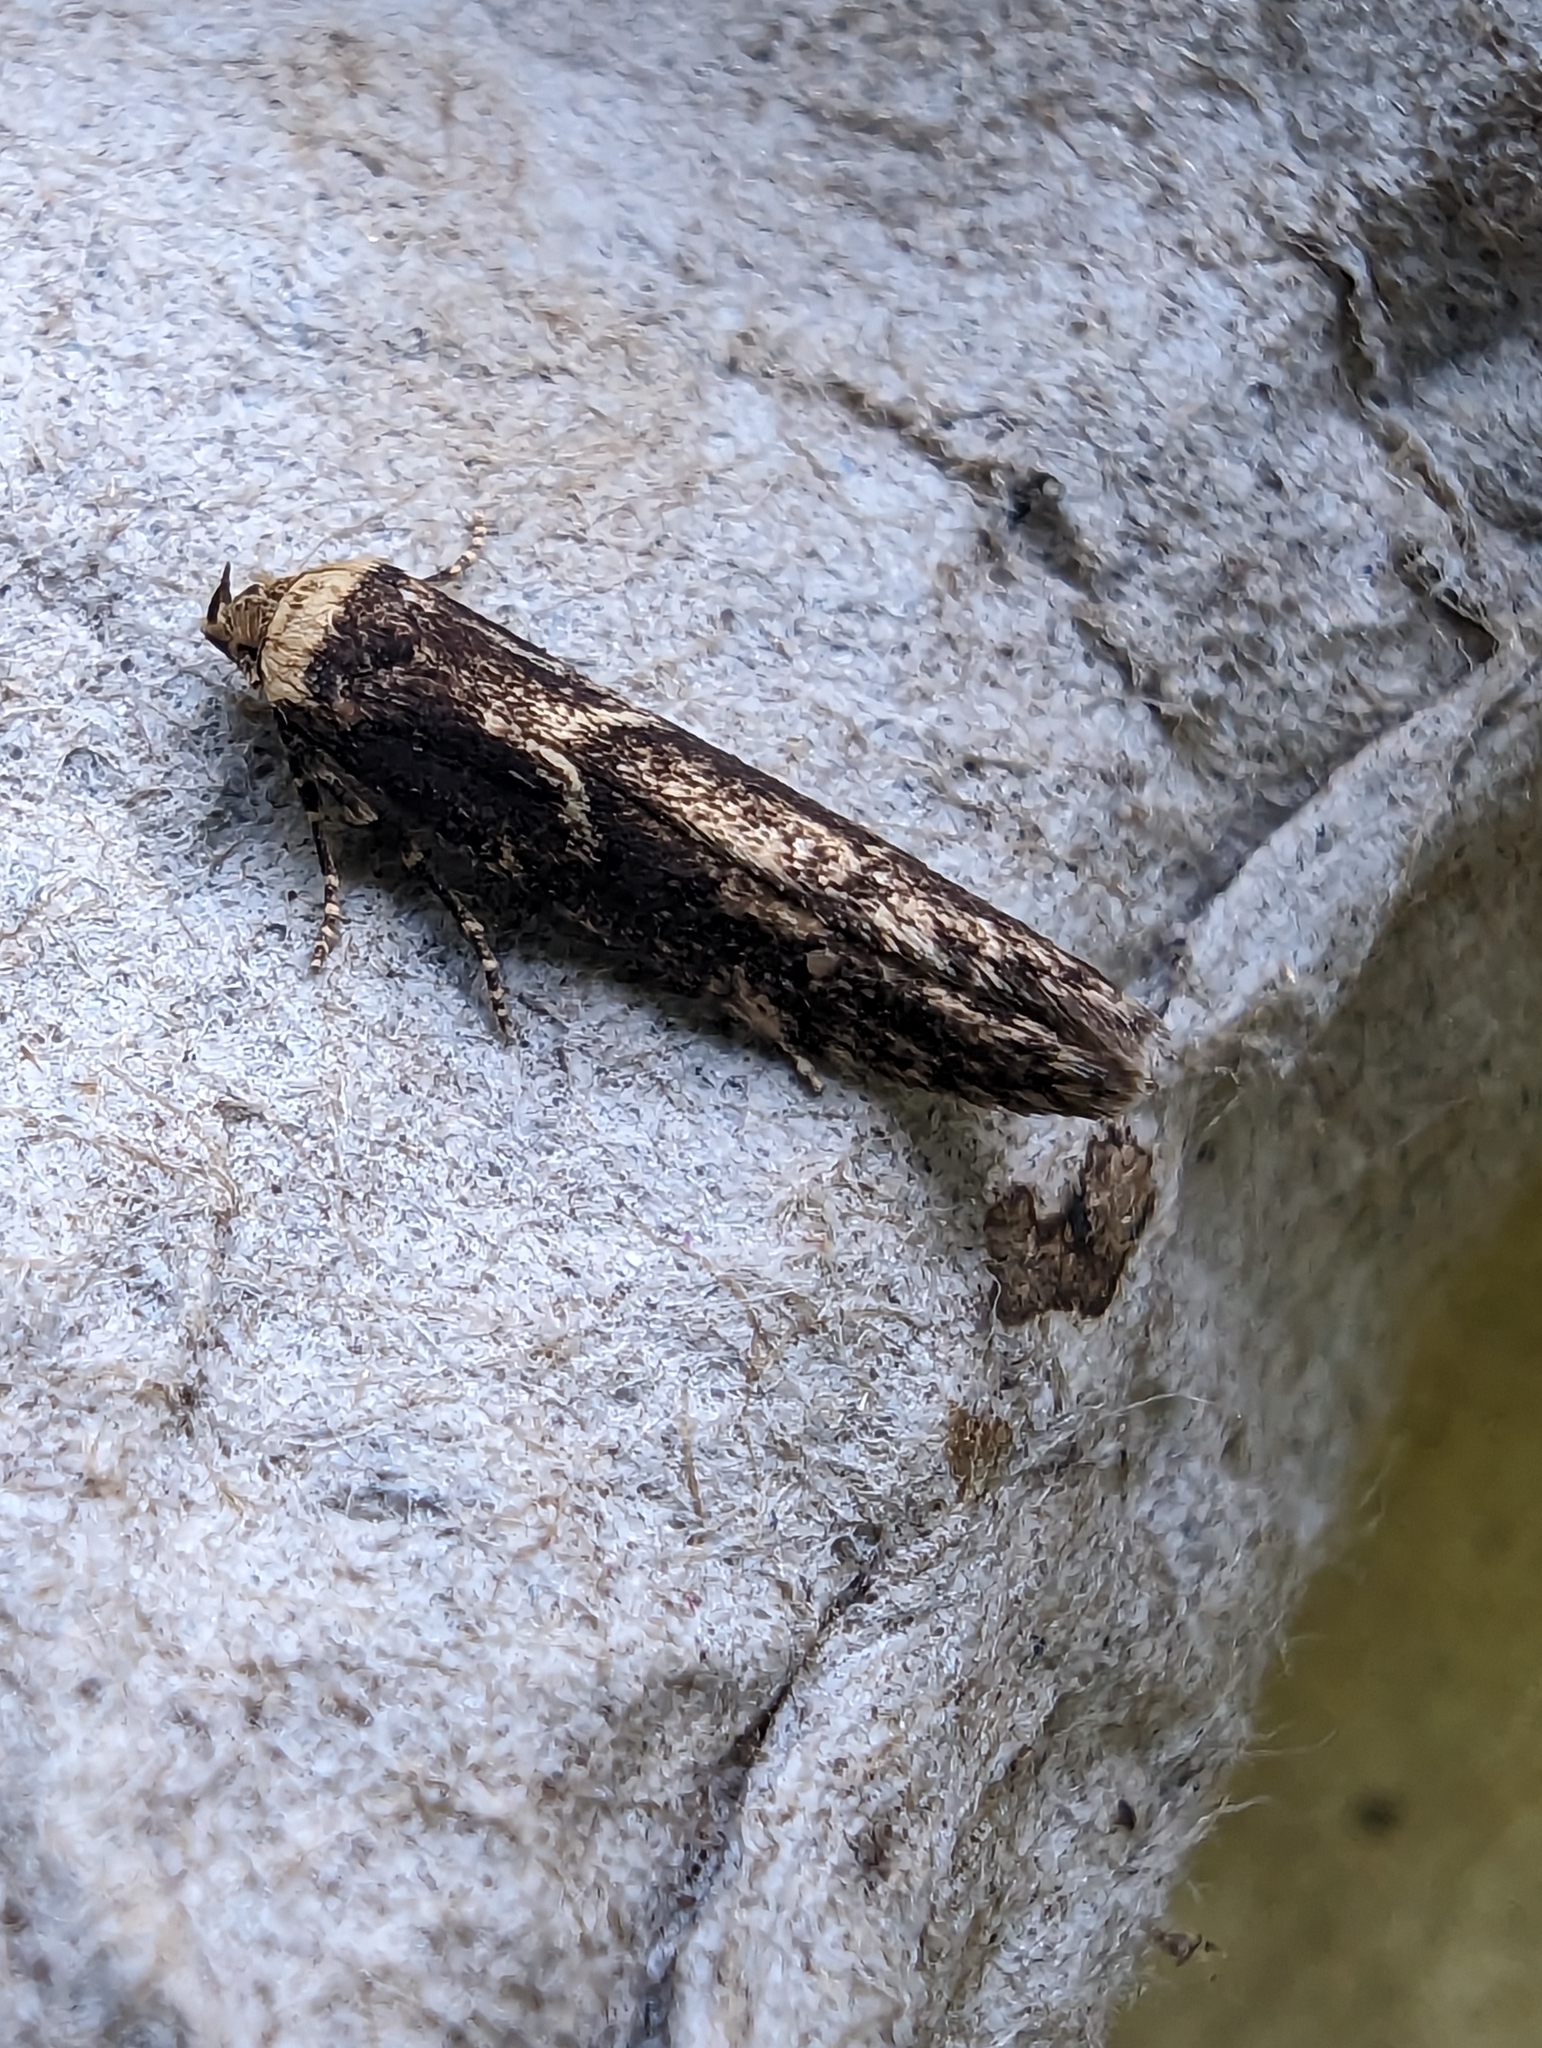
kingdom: Animalia
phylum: Arthropoda
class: Insecta
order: Lepidoptera
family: Blastobasidae
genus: Blastobasis
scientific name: Blastobasis adustella
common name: Dingy dowd
